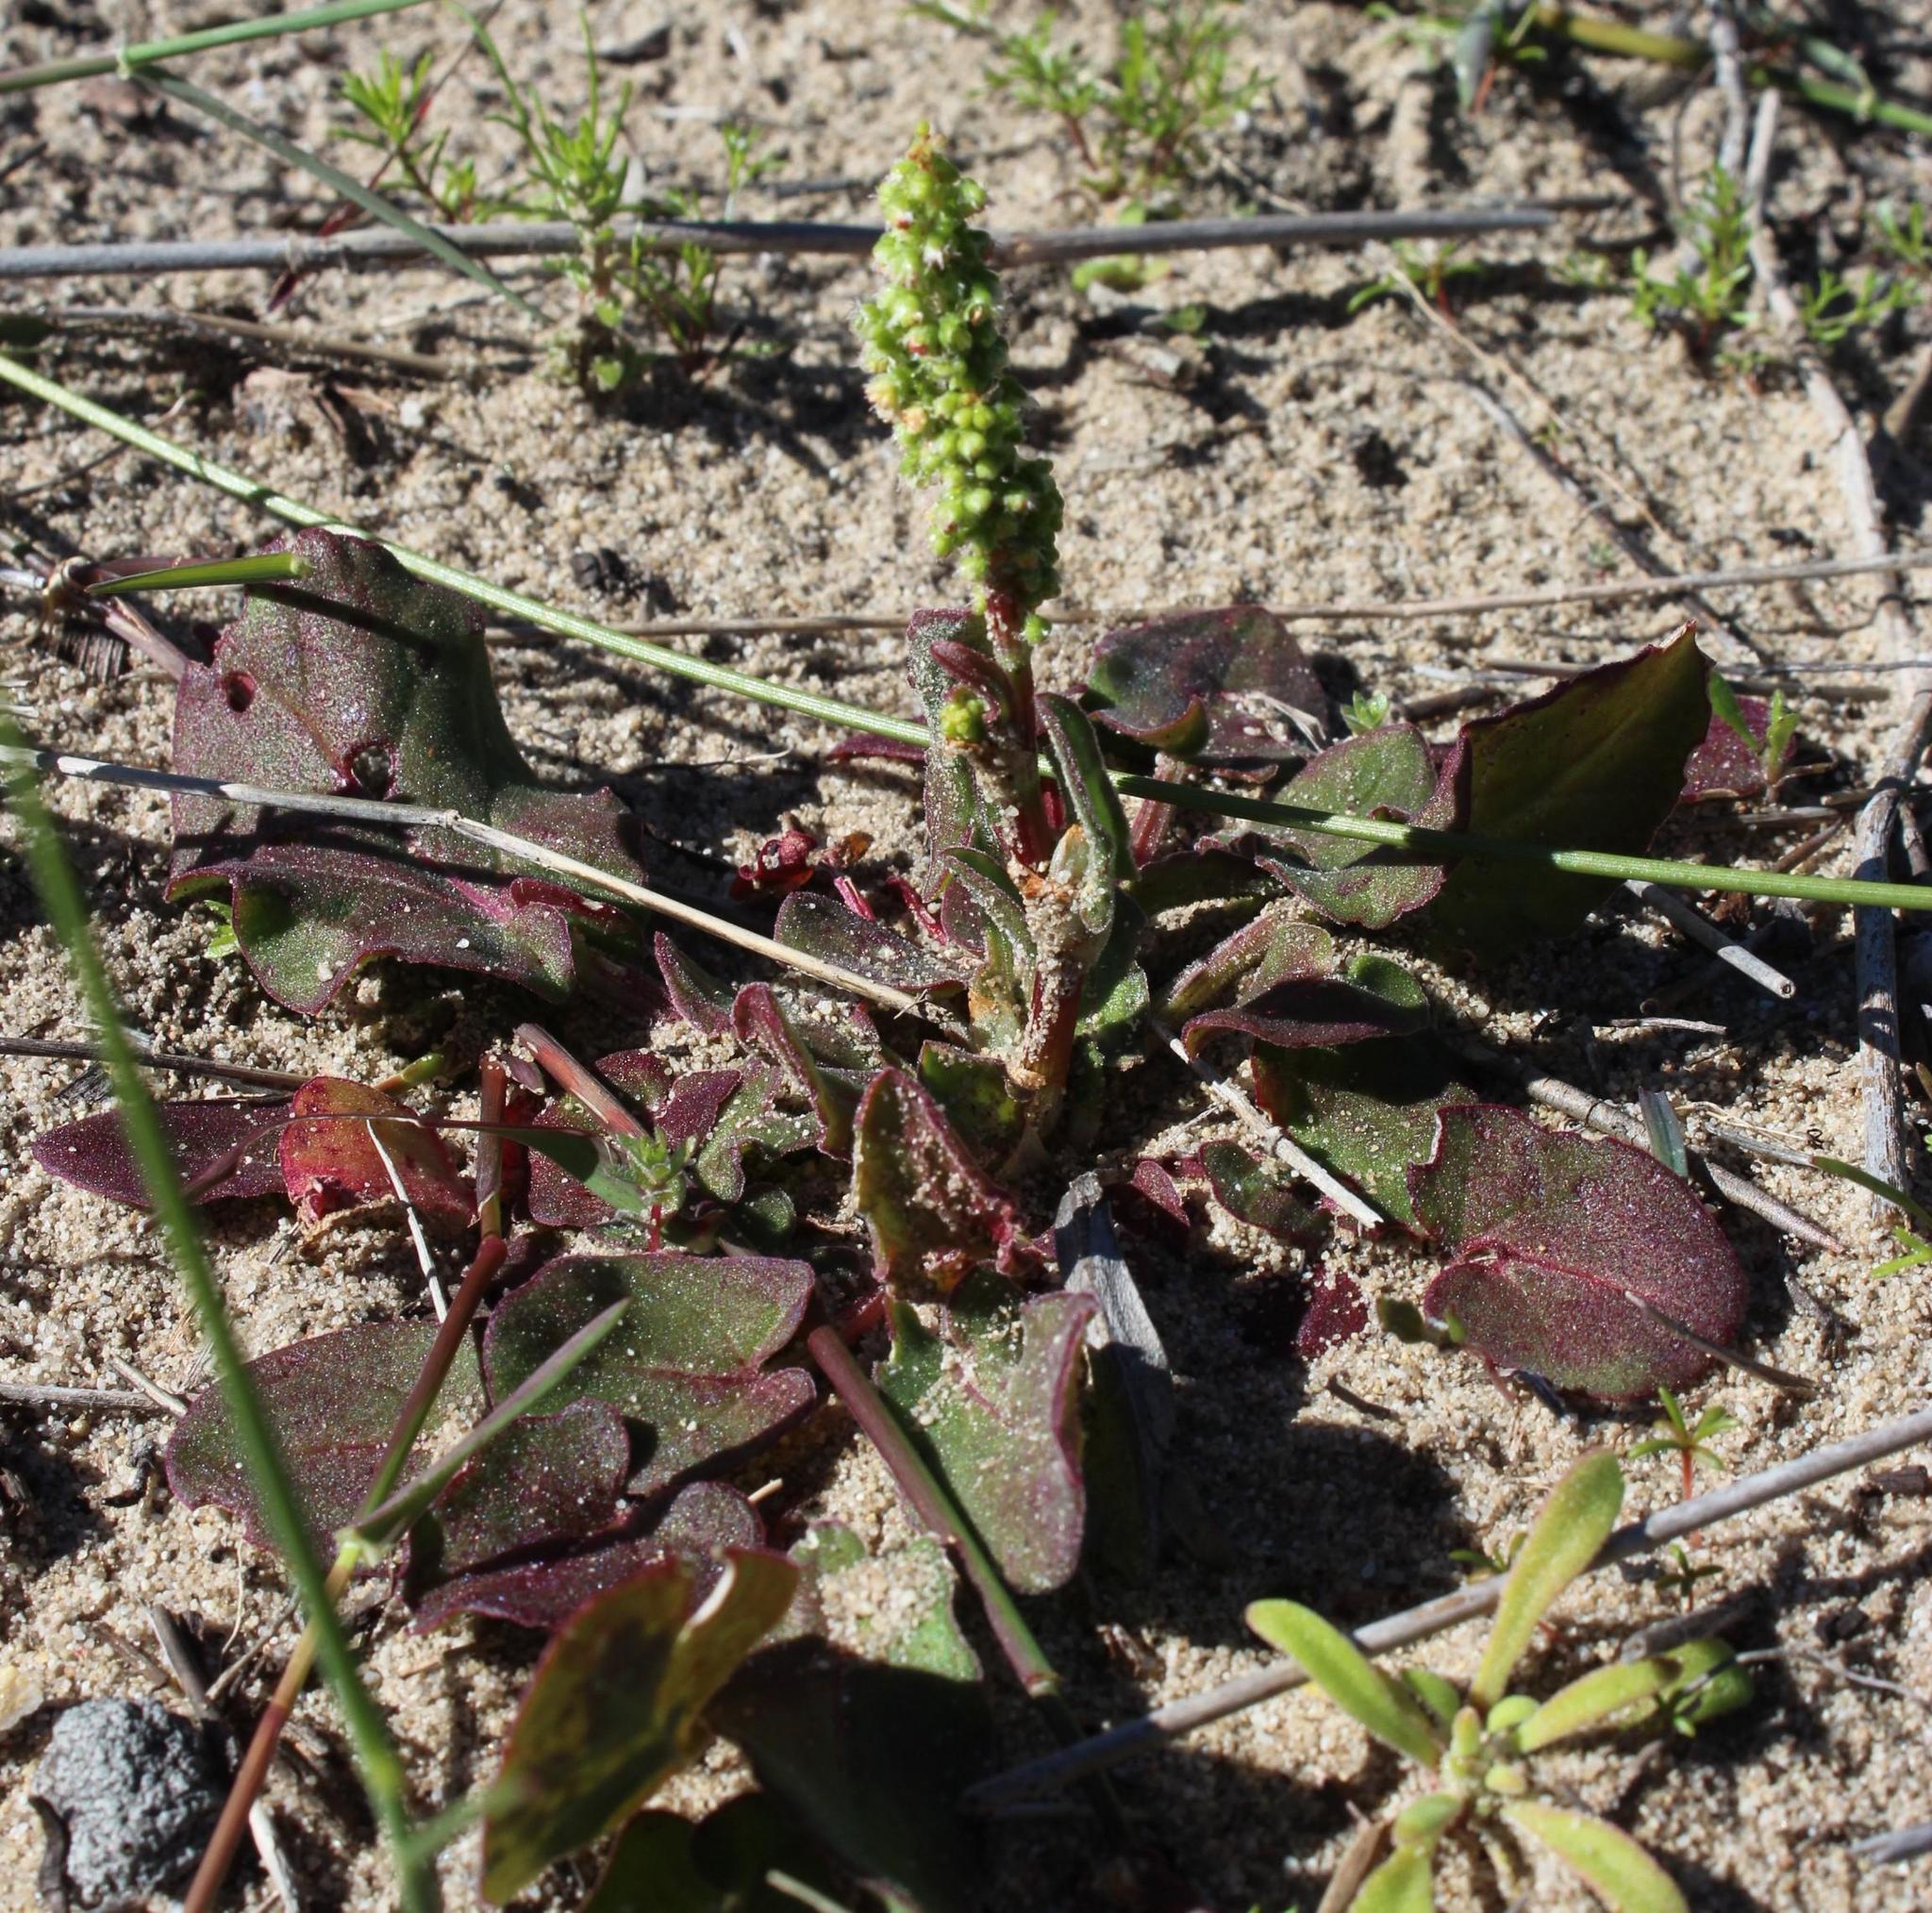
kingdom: Plantae
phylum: Tracheophyta
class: Magnoliopsida
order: Caryophyllales
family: Polygonaceae
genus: Rumex
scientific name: Rumex cordatus
